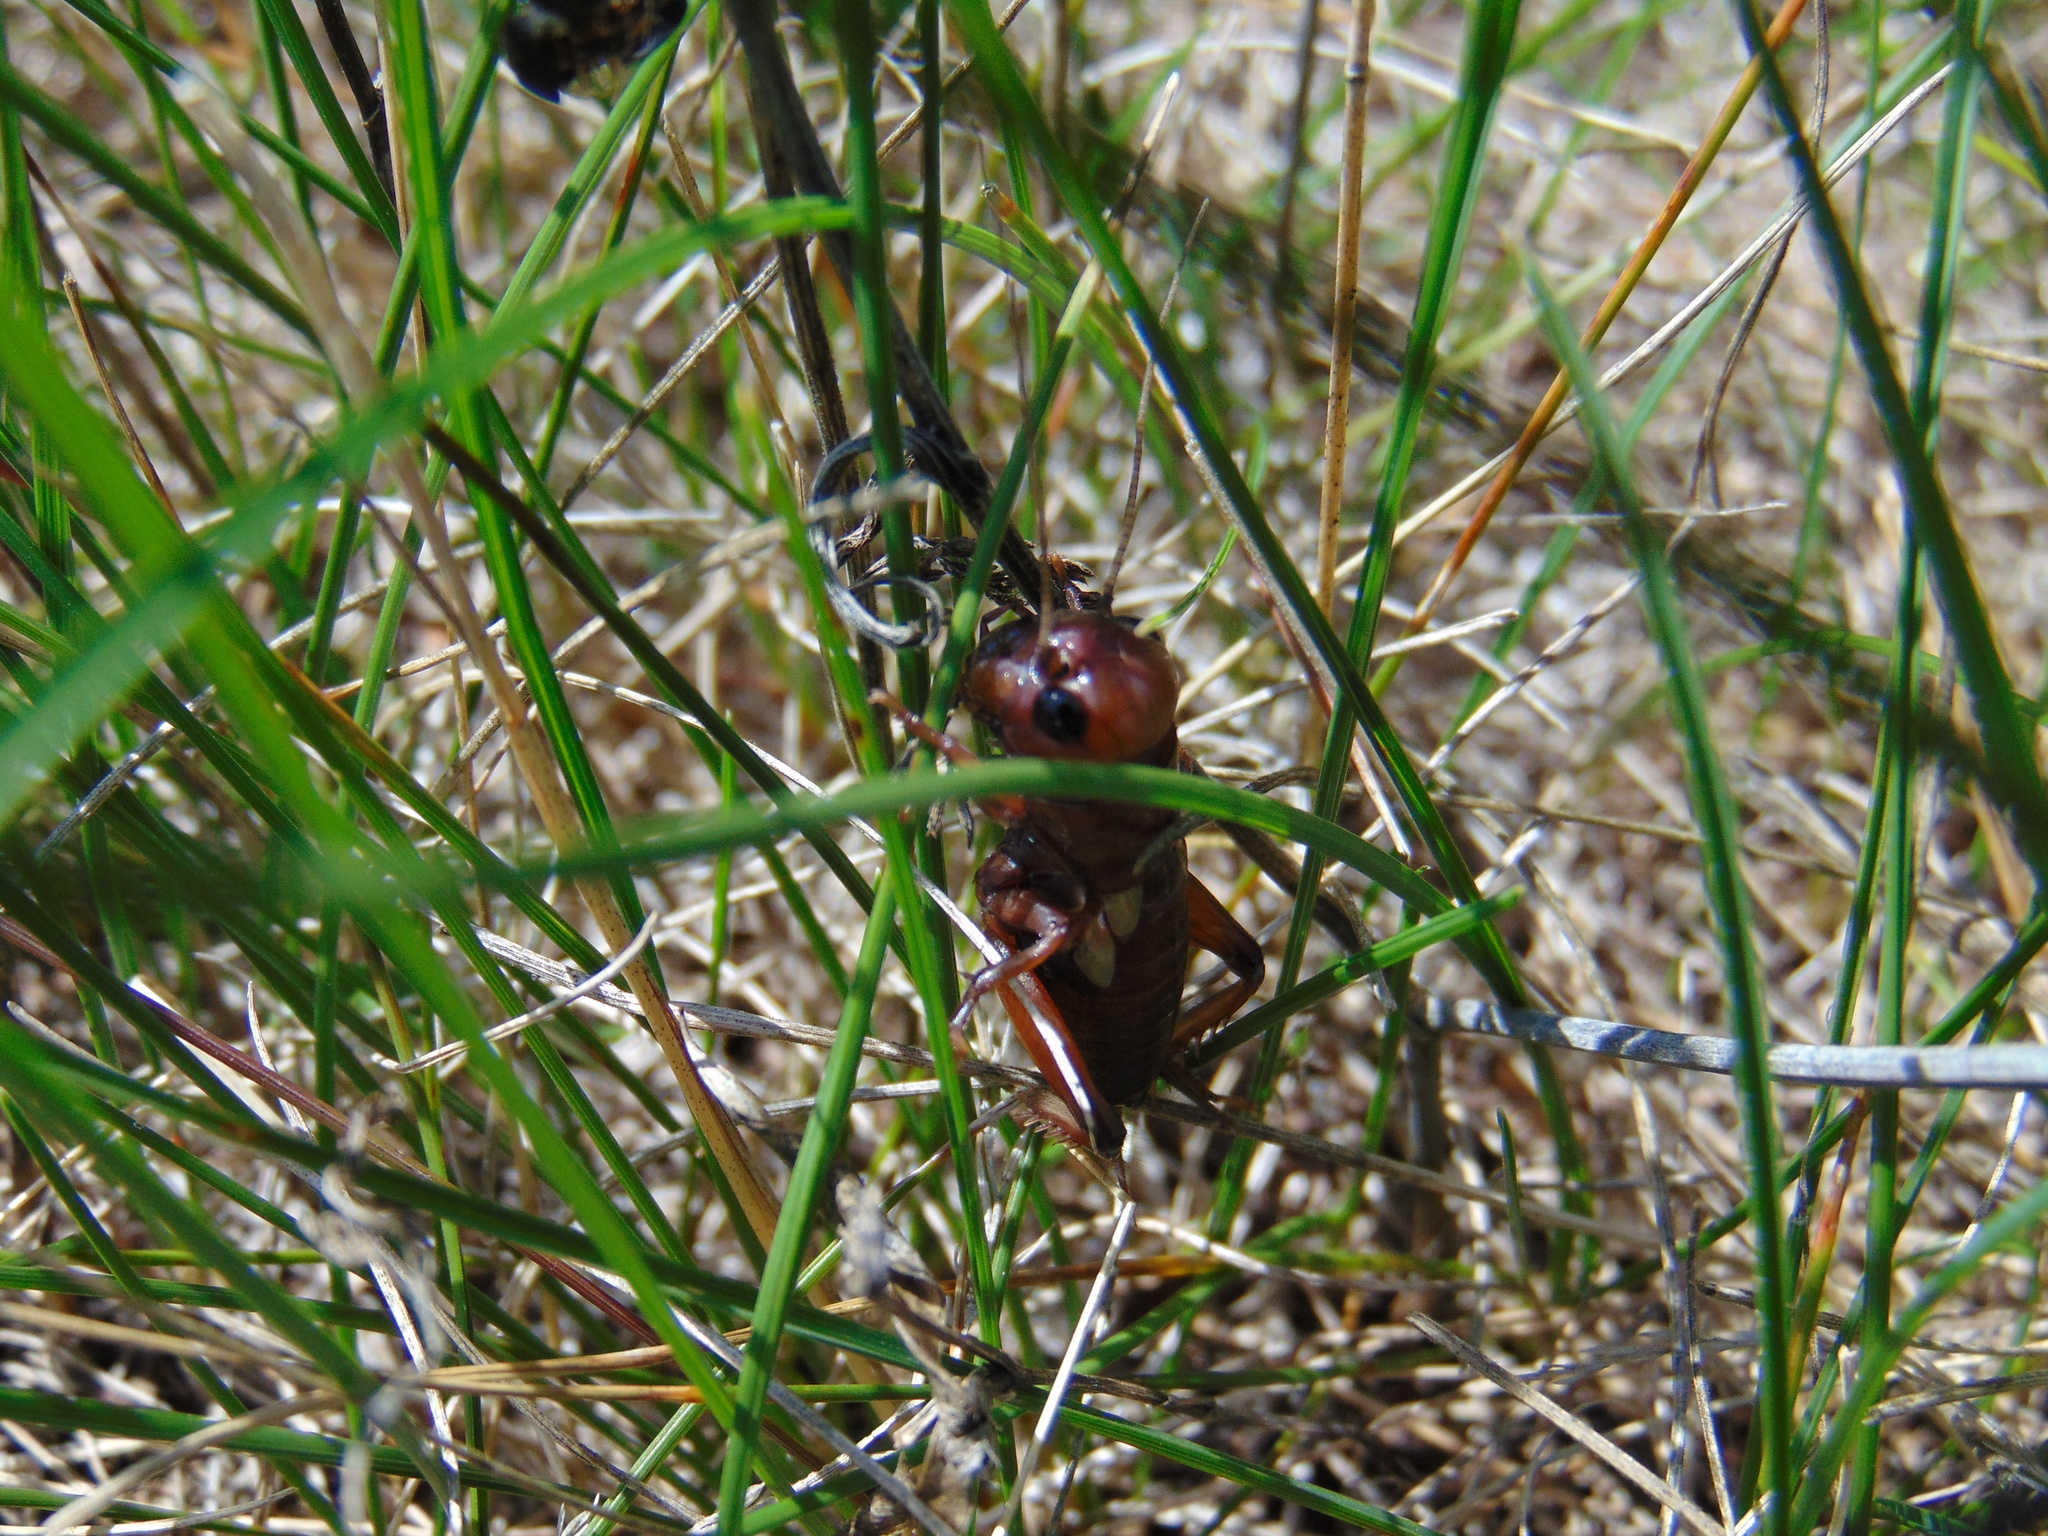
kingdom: Animalia
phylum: Arthropoda
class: Insecta
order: Orthoptera
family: Gryllidae
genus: Gryllus
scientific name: Gryllus campestris
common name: Field cricket
